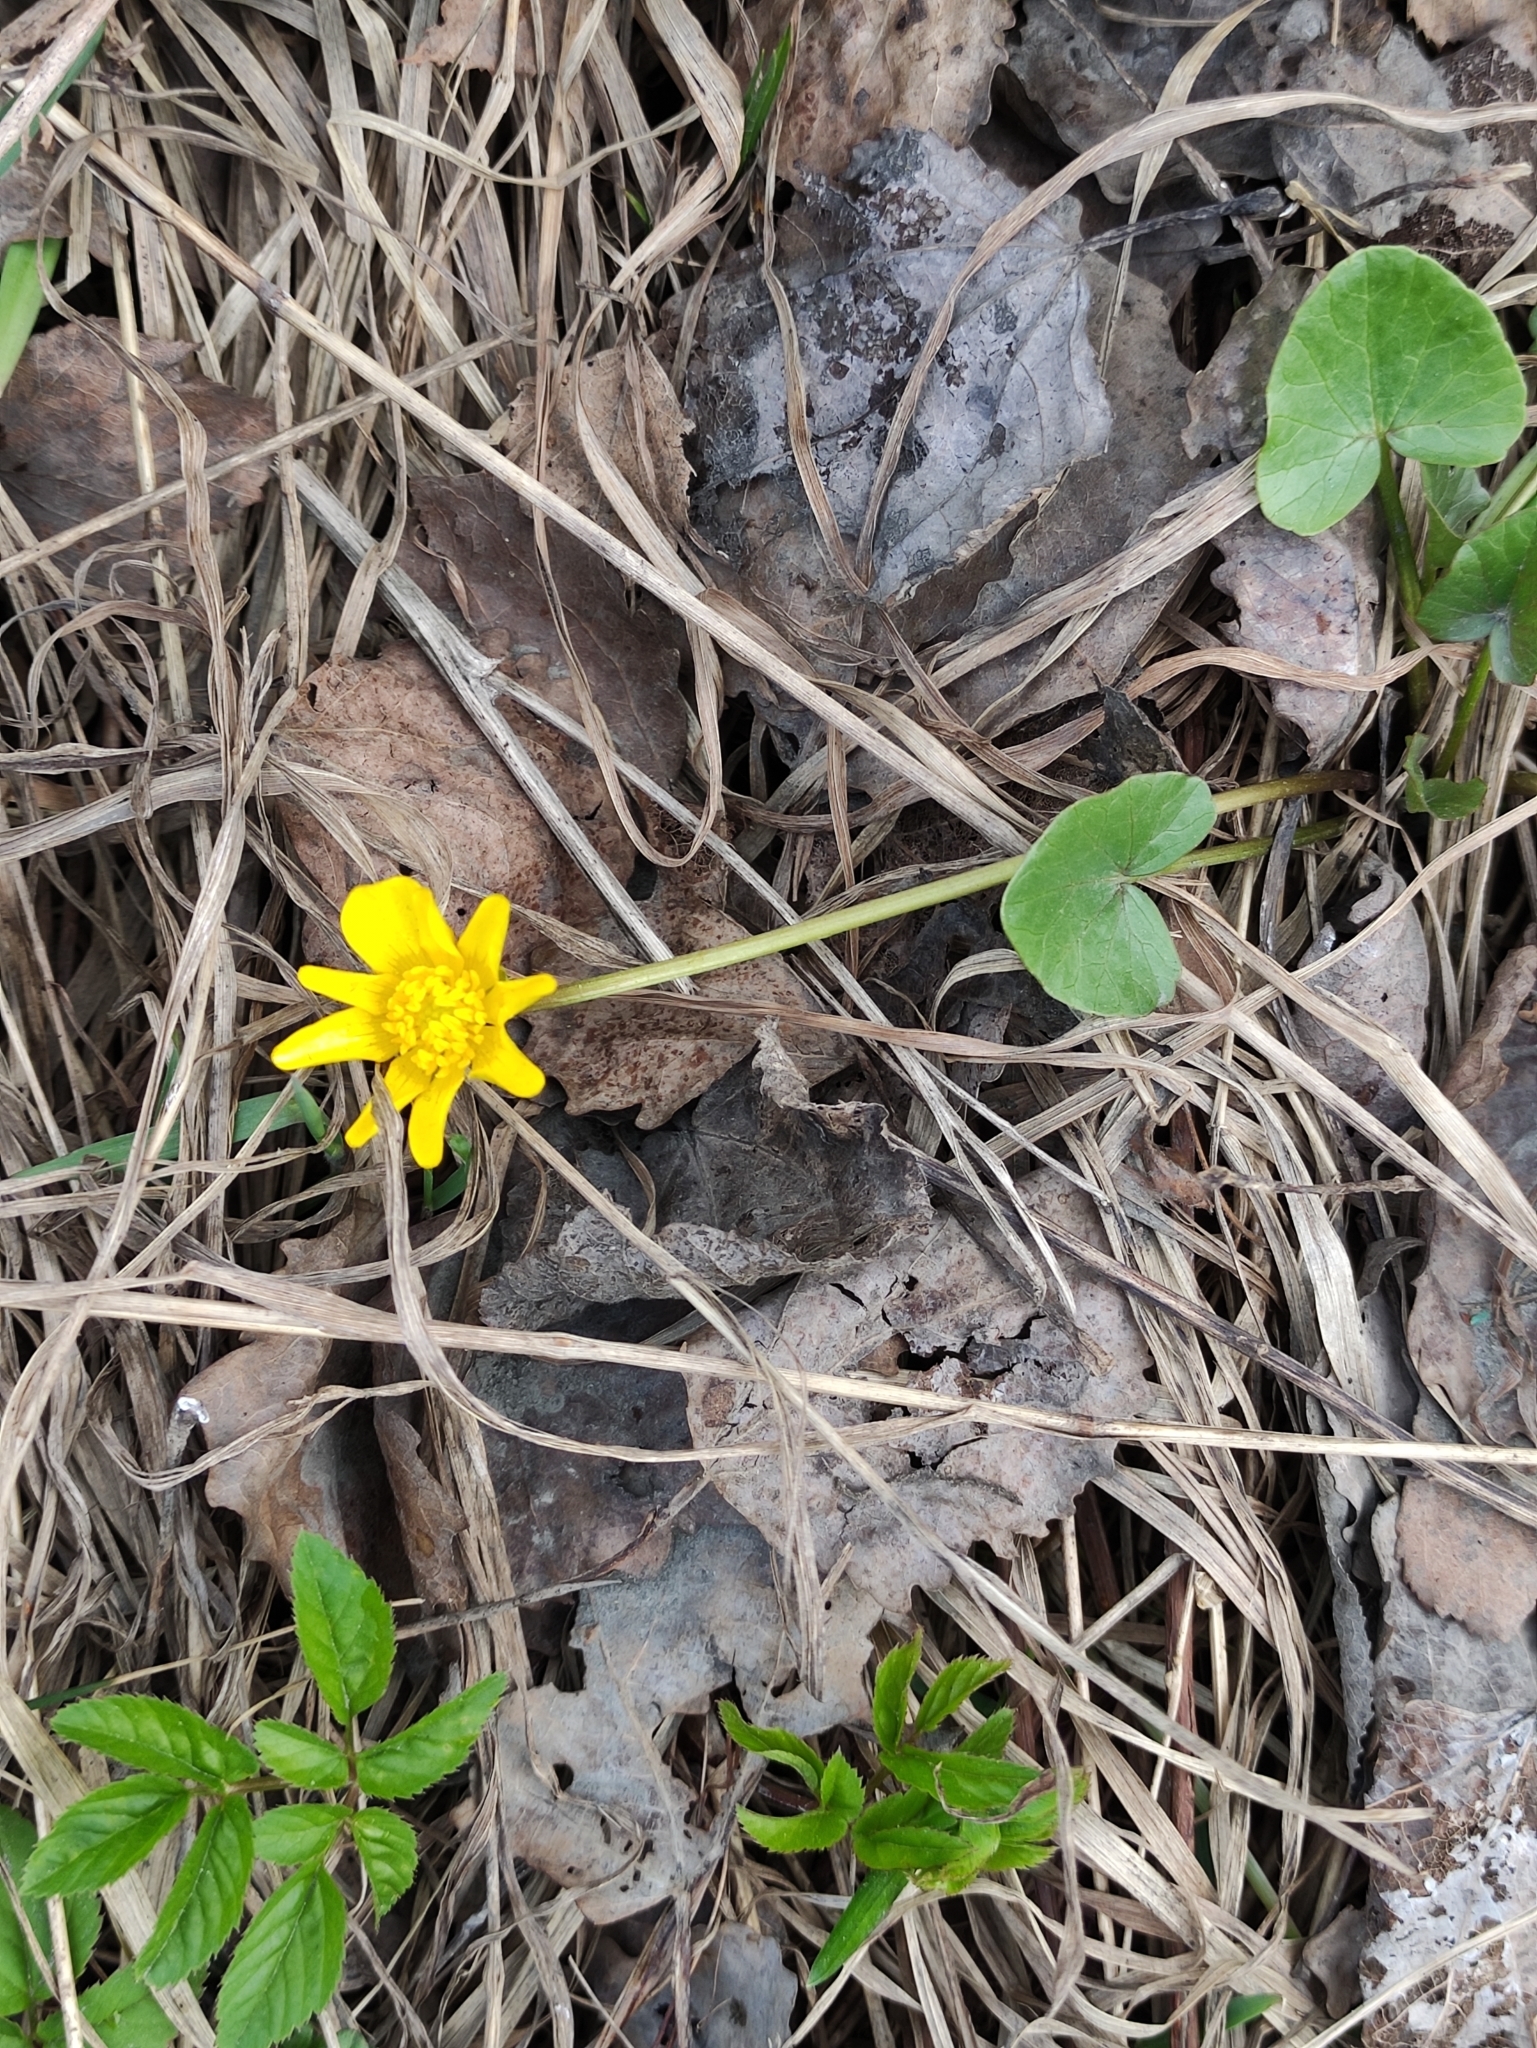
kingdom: Plantae
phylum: Tracheophyta
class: Magnoliopsida
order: Ranunculales
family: Ranunculaceae
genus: Ficaria
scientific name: Ficaria verna
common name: Lesser celandine
